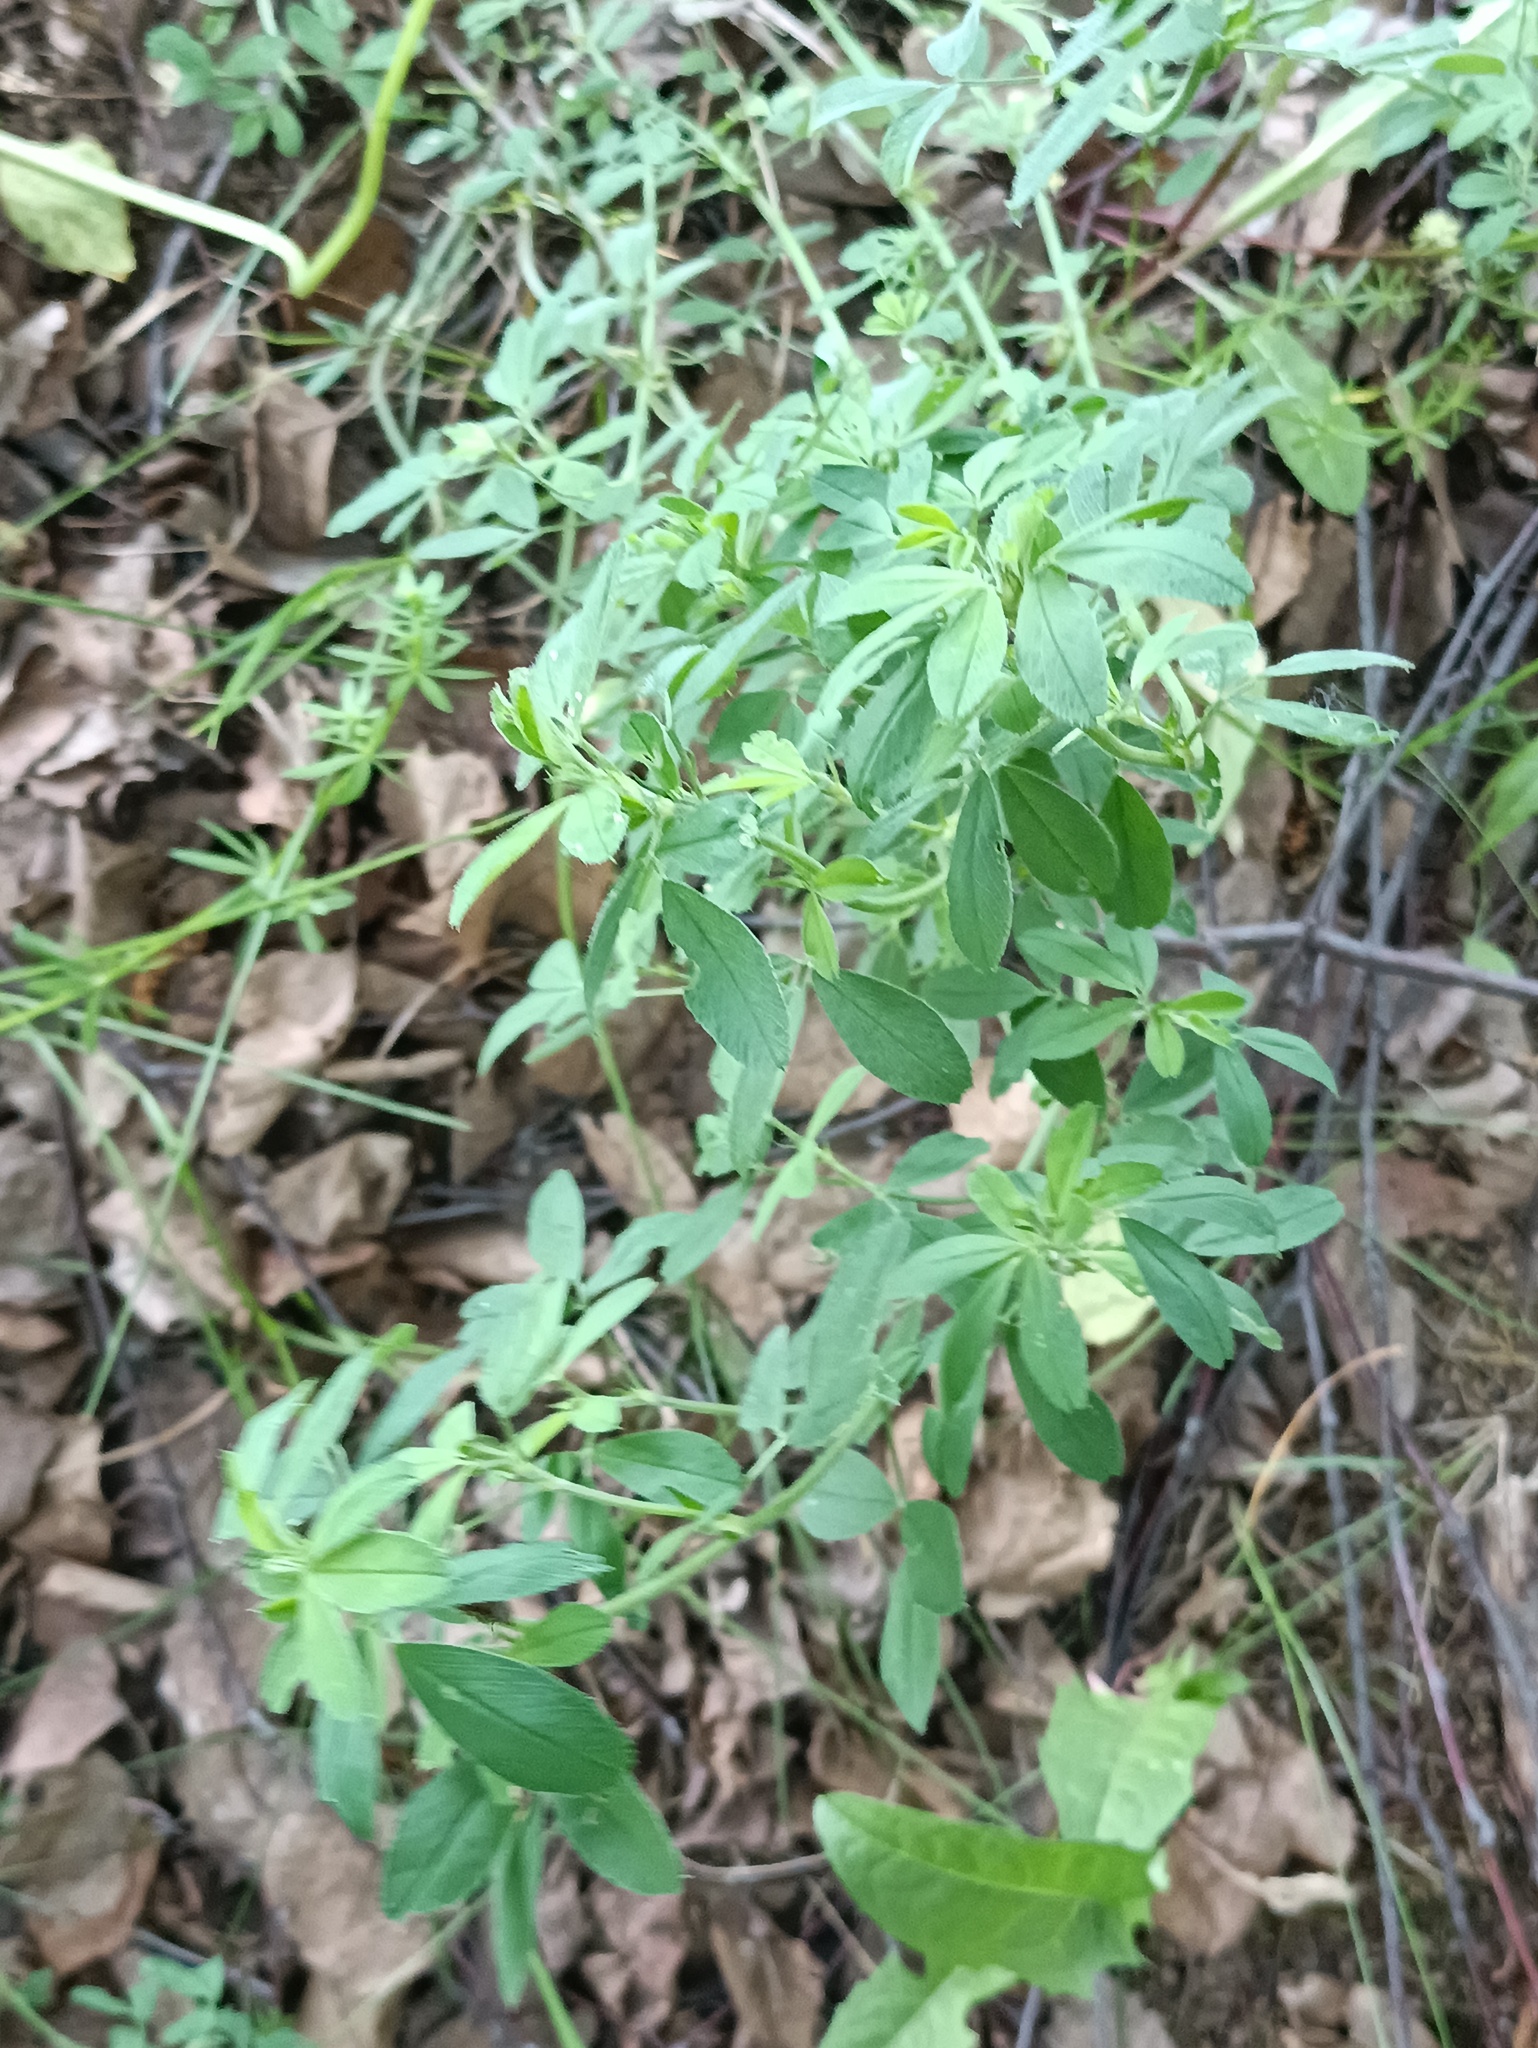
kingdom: Plantae
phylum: Tracheophyta
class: Magnoliopsida
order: Fabales
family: Fabaceae
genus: Medicago
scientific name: Medicago
